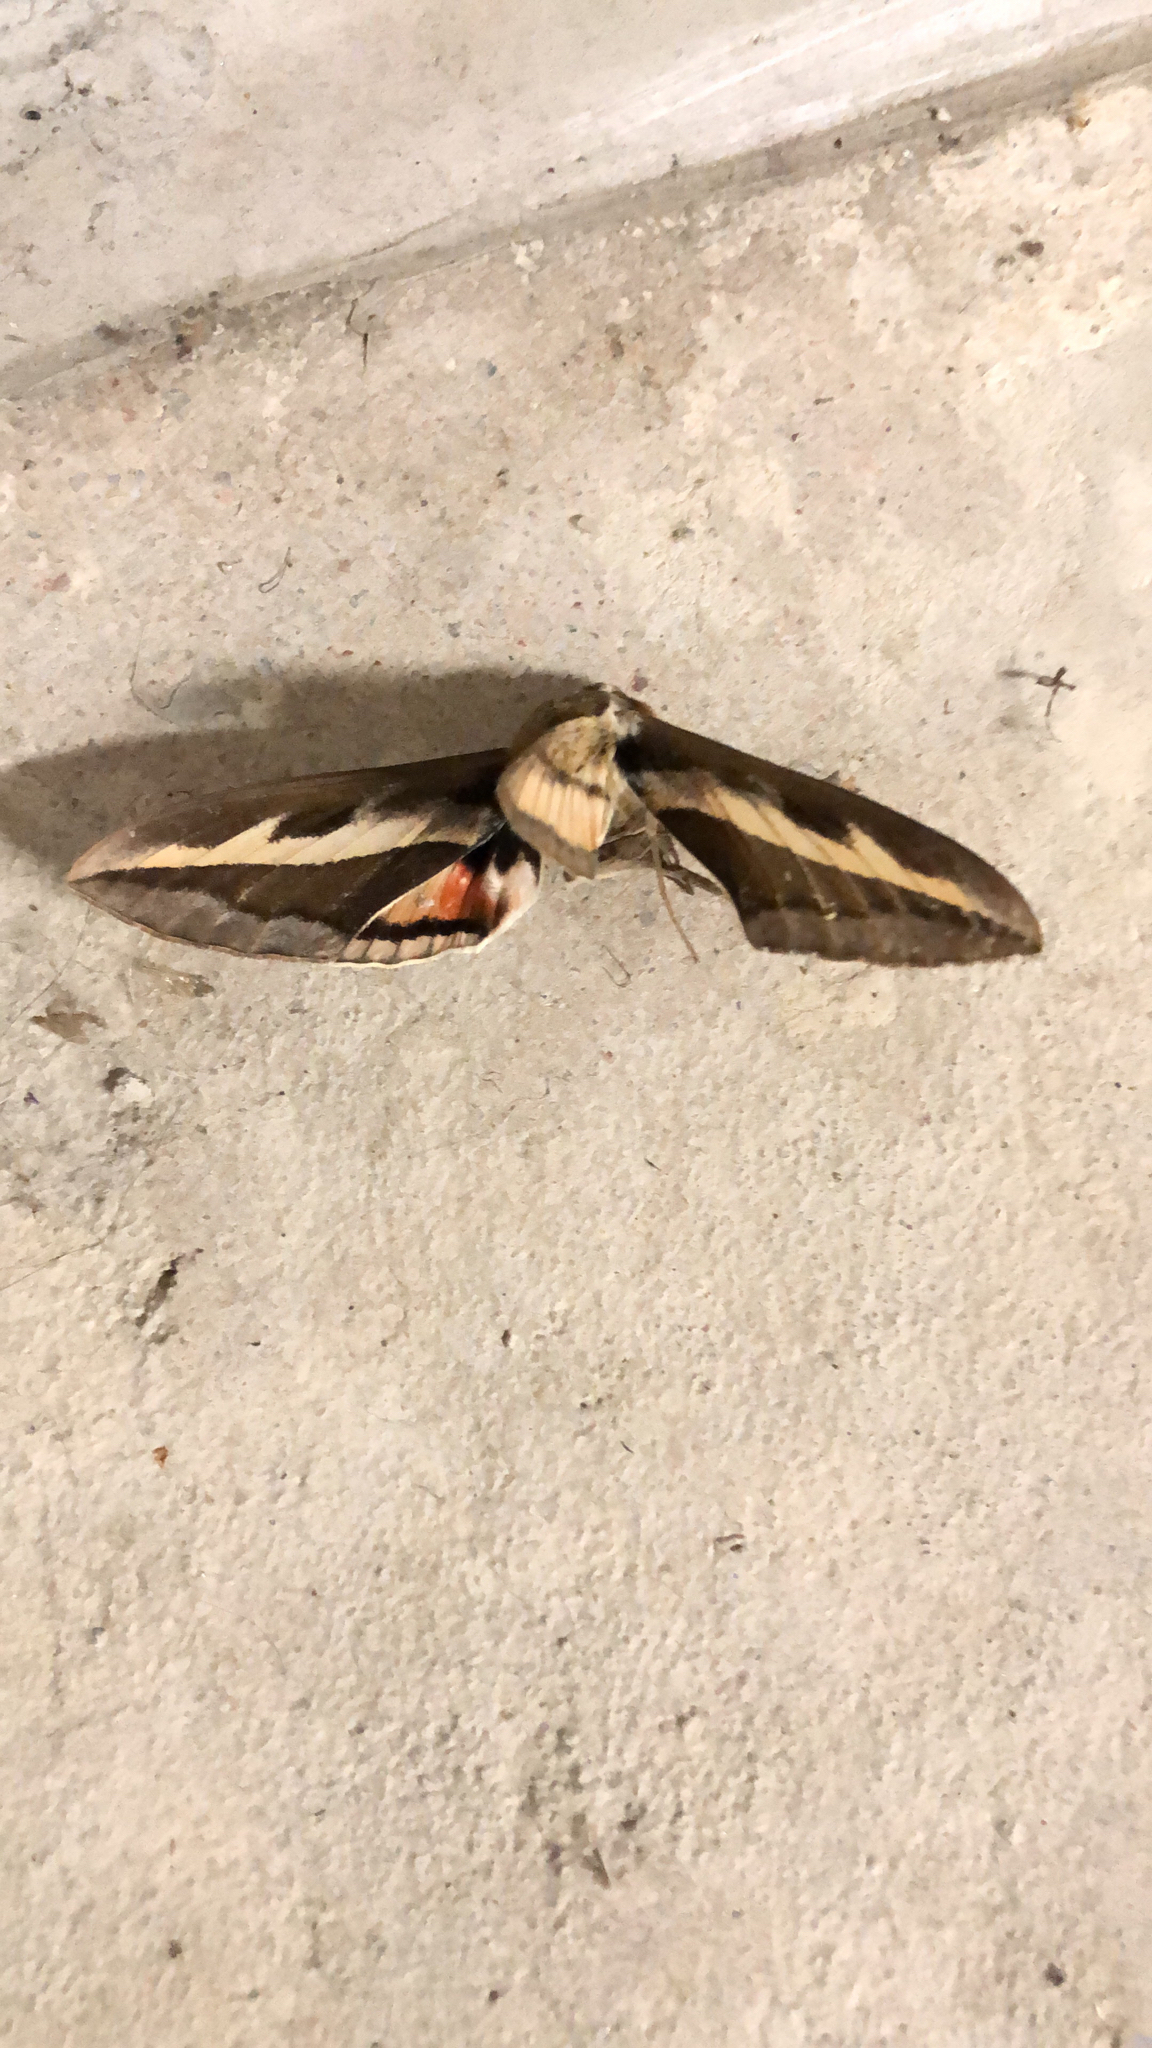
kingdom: Animalia
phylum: Arthropoda
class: Insecta
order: Lepidoptera
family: Sphingidae
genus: Hyles
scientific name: Hyles gallii
